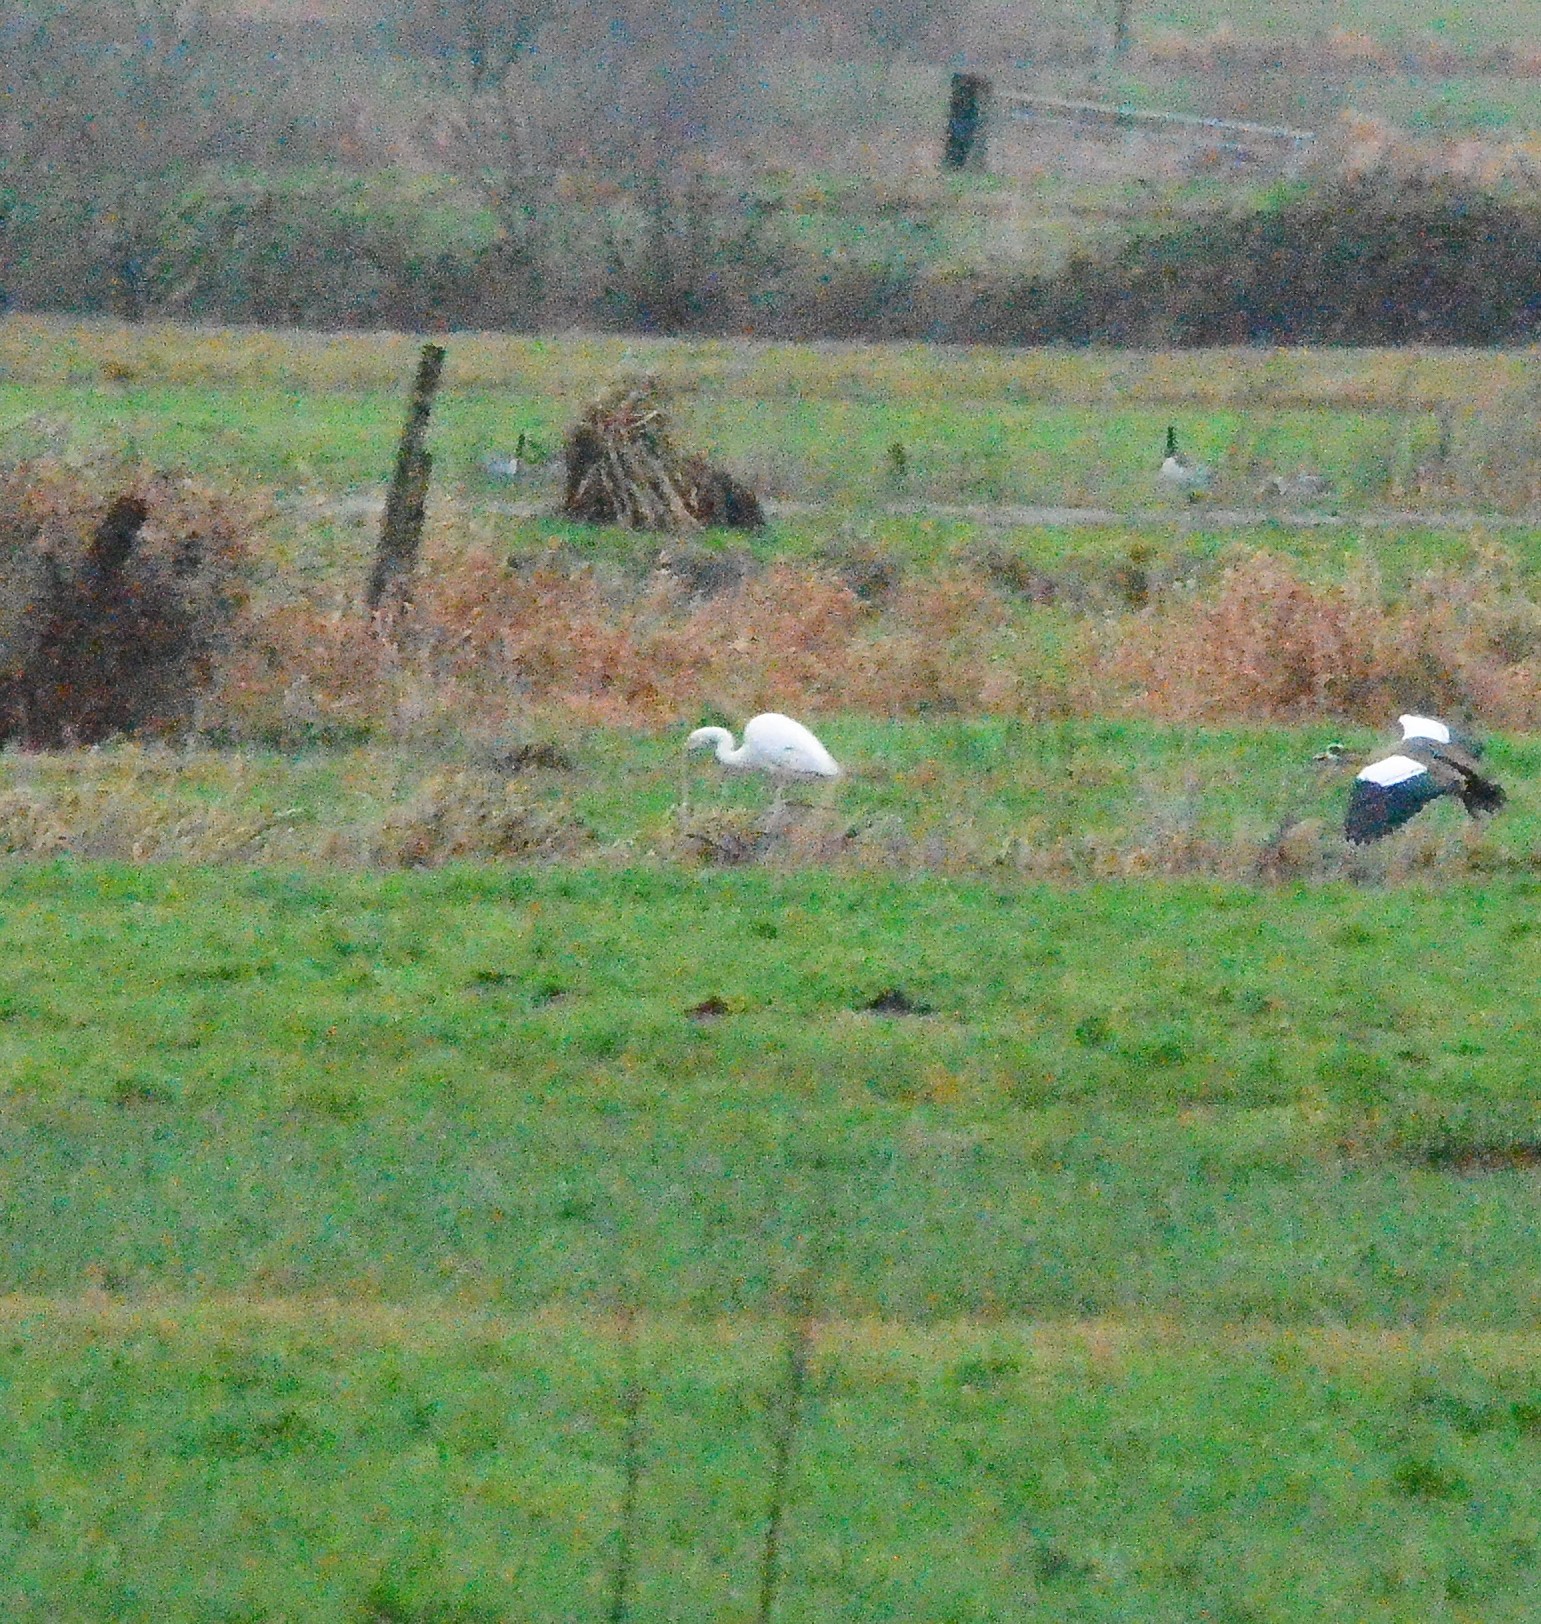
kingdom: Animalia
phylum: Chordata
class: Aves
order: Pelecaniformes
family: Ardeidae
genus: Ardea
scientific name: Ardea alba
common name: Great egret
